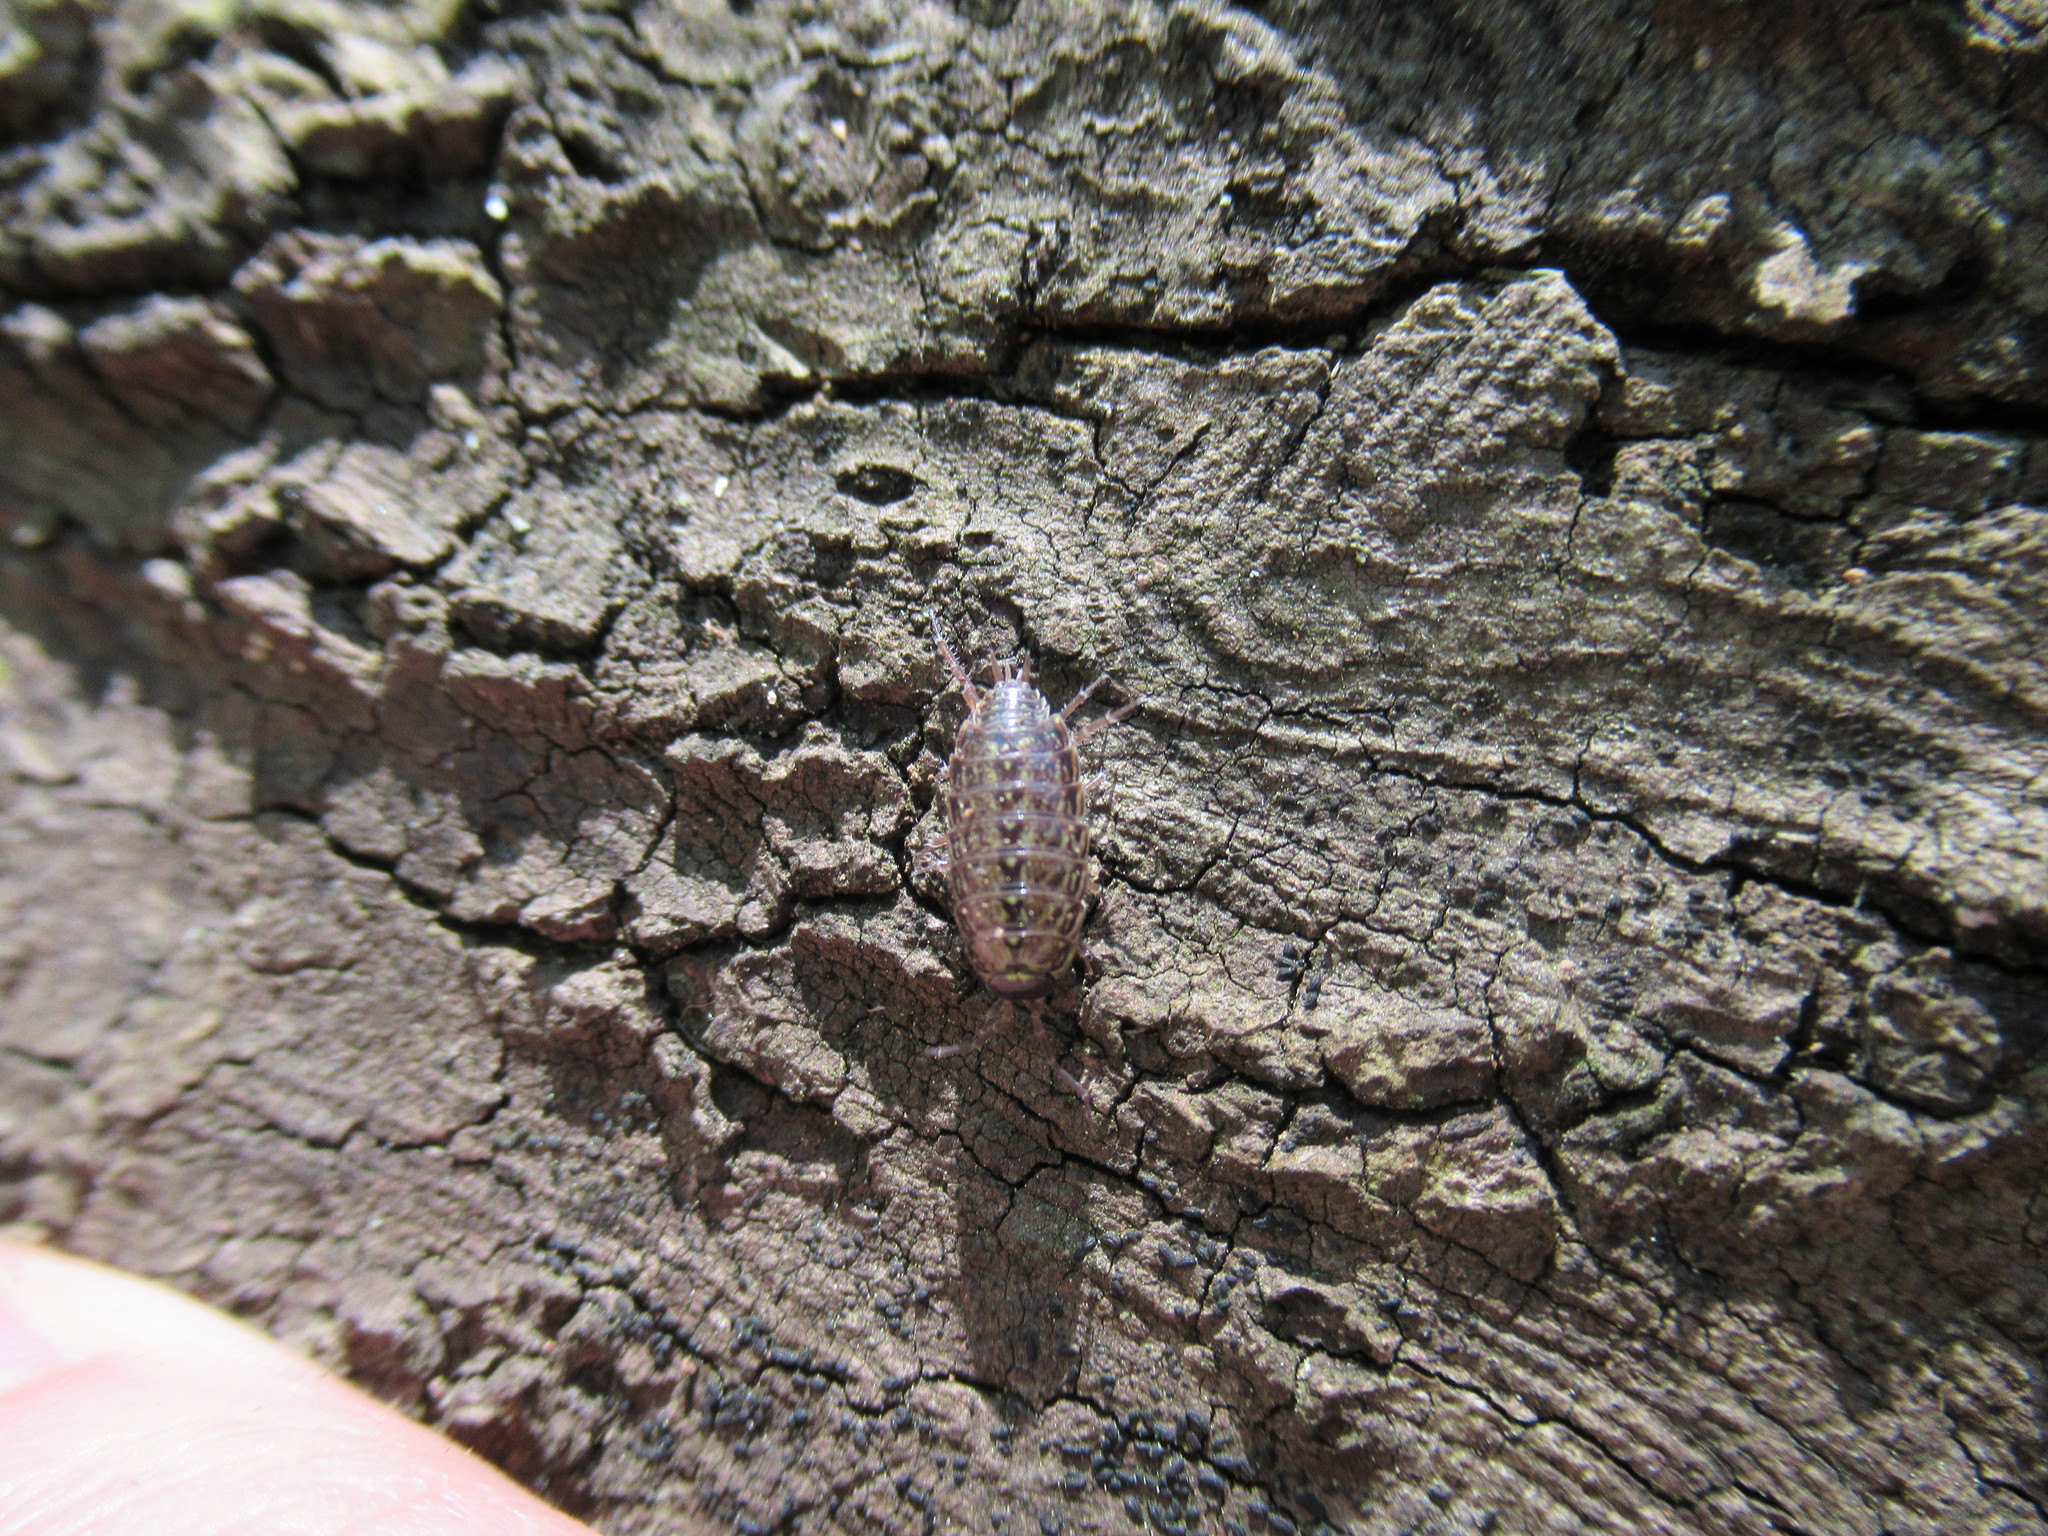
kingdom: Animalia
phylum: Arthropoda
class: Malacostraca
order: Isopoda
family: Philosciidae
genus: Philoscia
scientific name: Philoscia muscorum
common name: Common striped woodlouse
